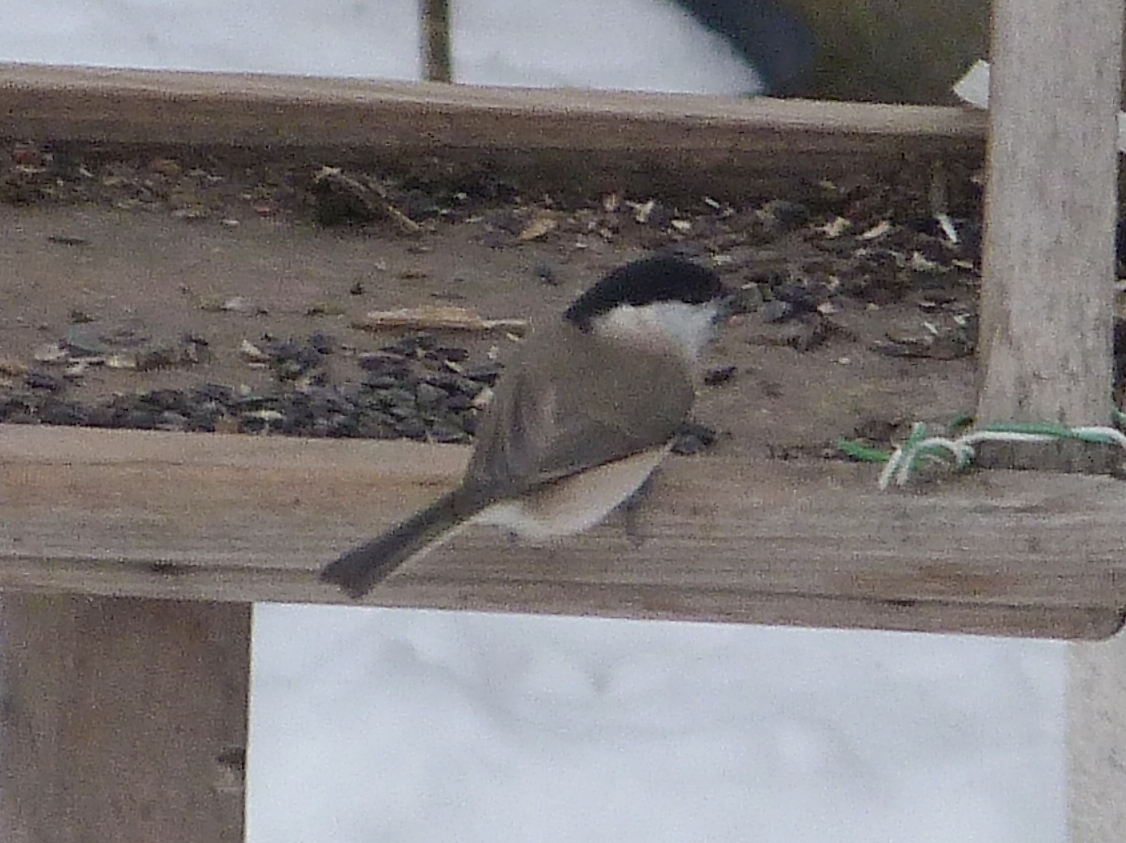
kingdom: Animalia
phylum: Chordata
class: Aves
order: Passeriformes
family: Paridae
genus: Poecile
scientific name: Poecile palustris
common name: Marsh tit
